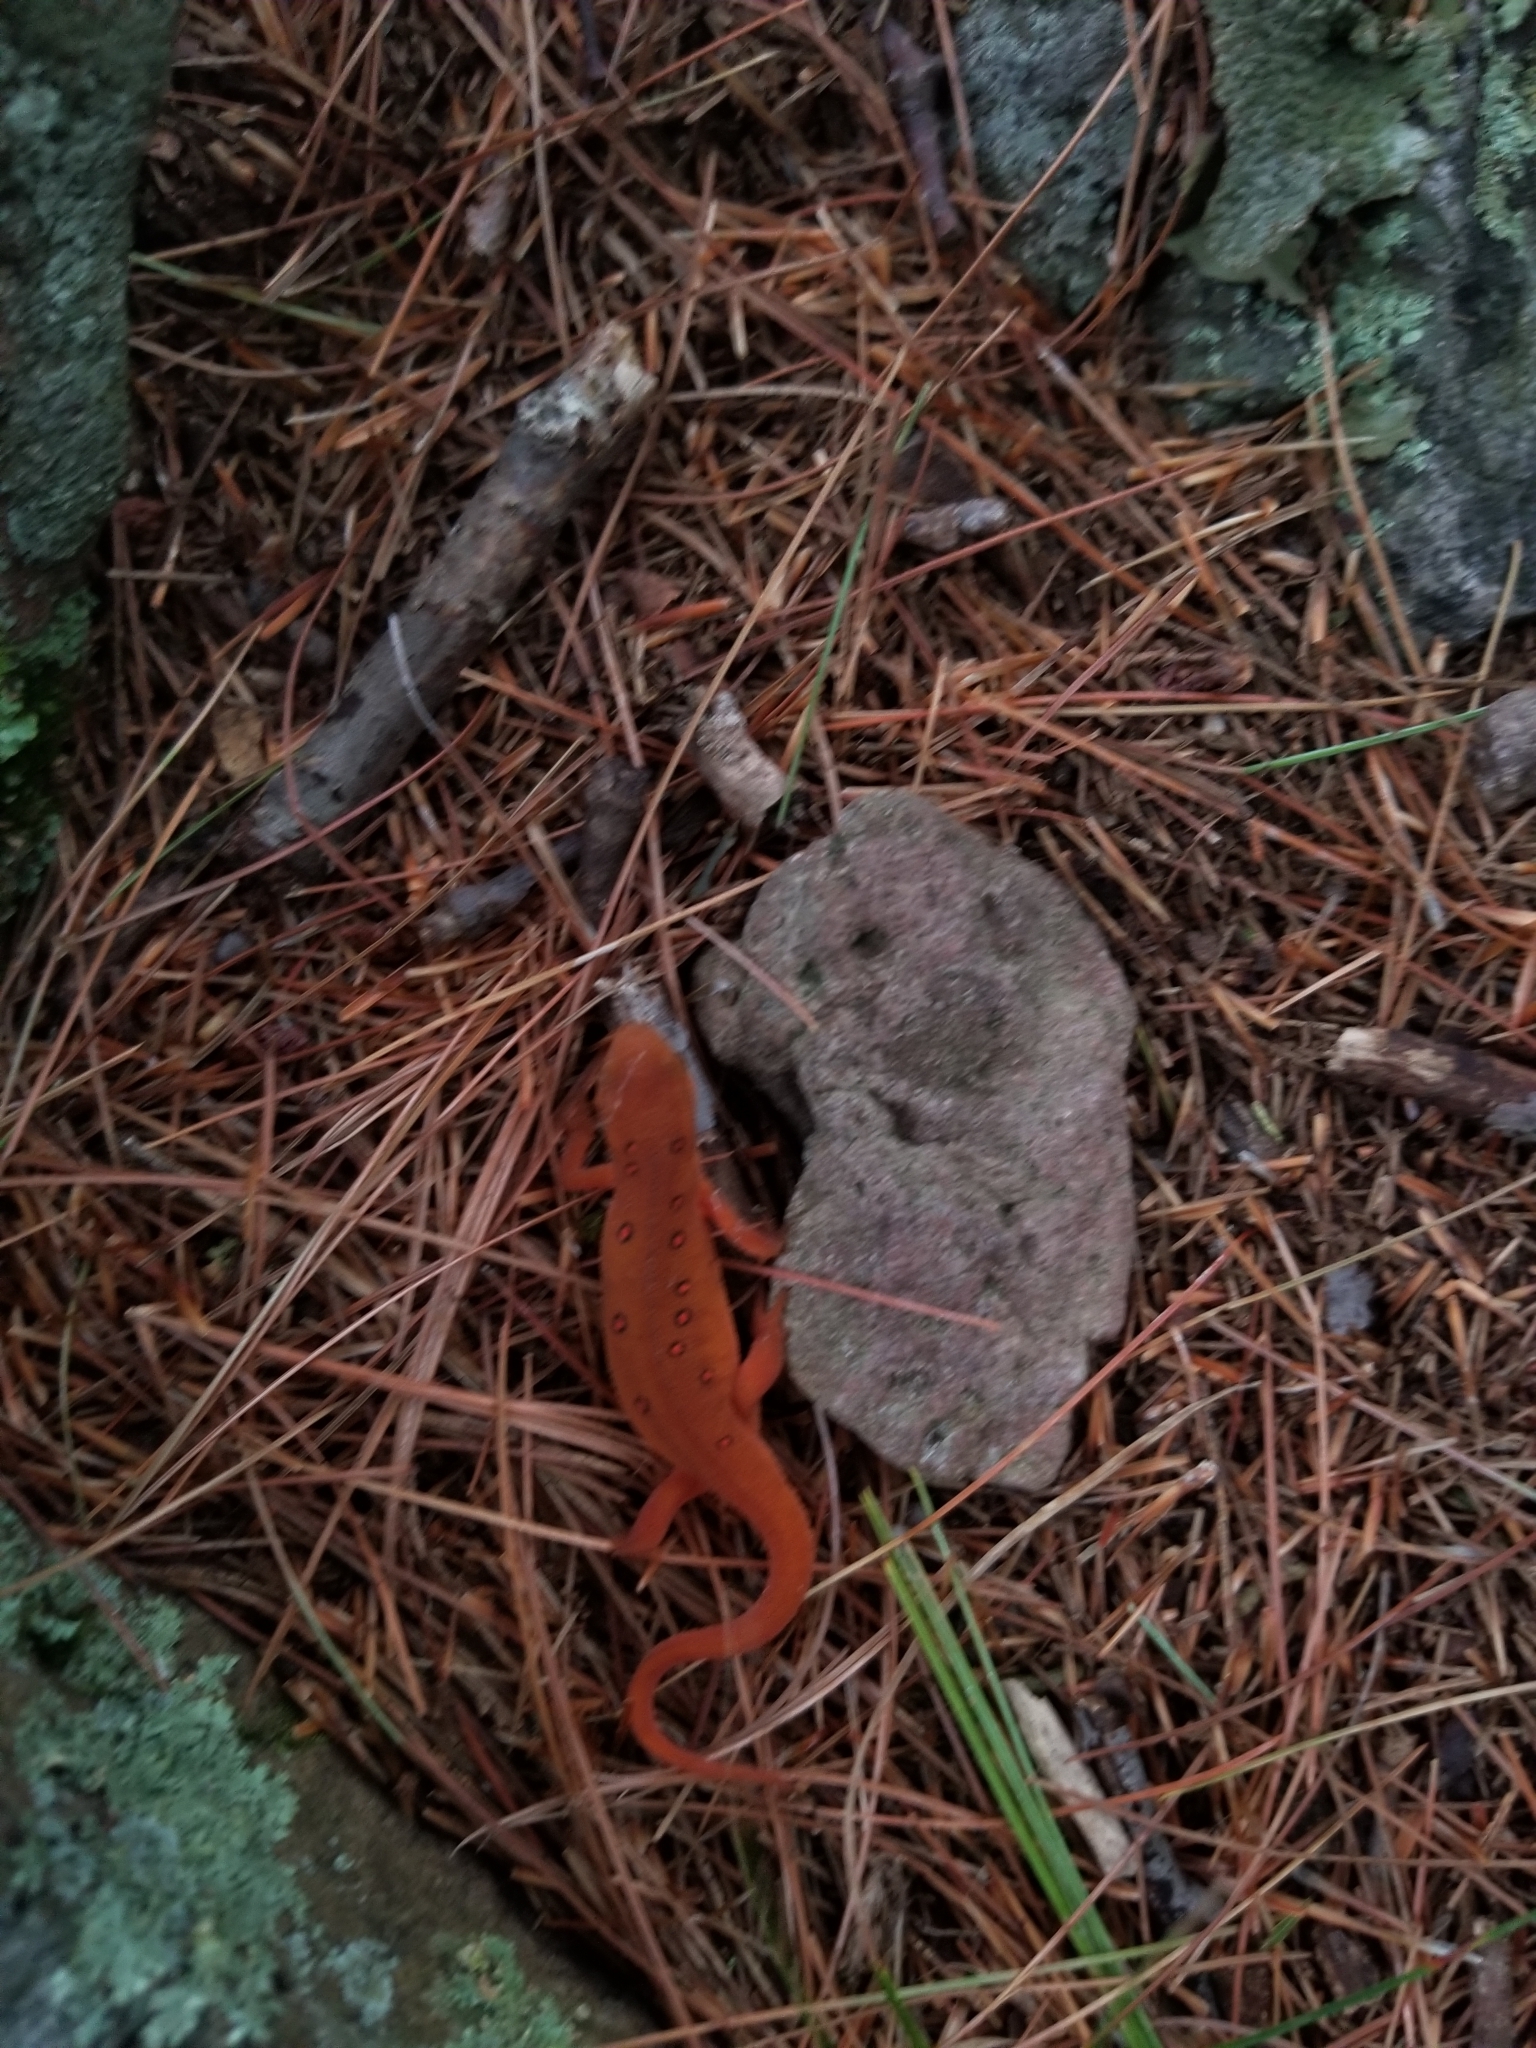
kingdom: Animalia
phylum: Chordata
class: Amphibia
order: Caudata
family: Salamandridae
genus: Notophthalmus
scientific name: Notophthalmus viridescens
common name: Eastern newt
